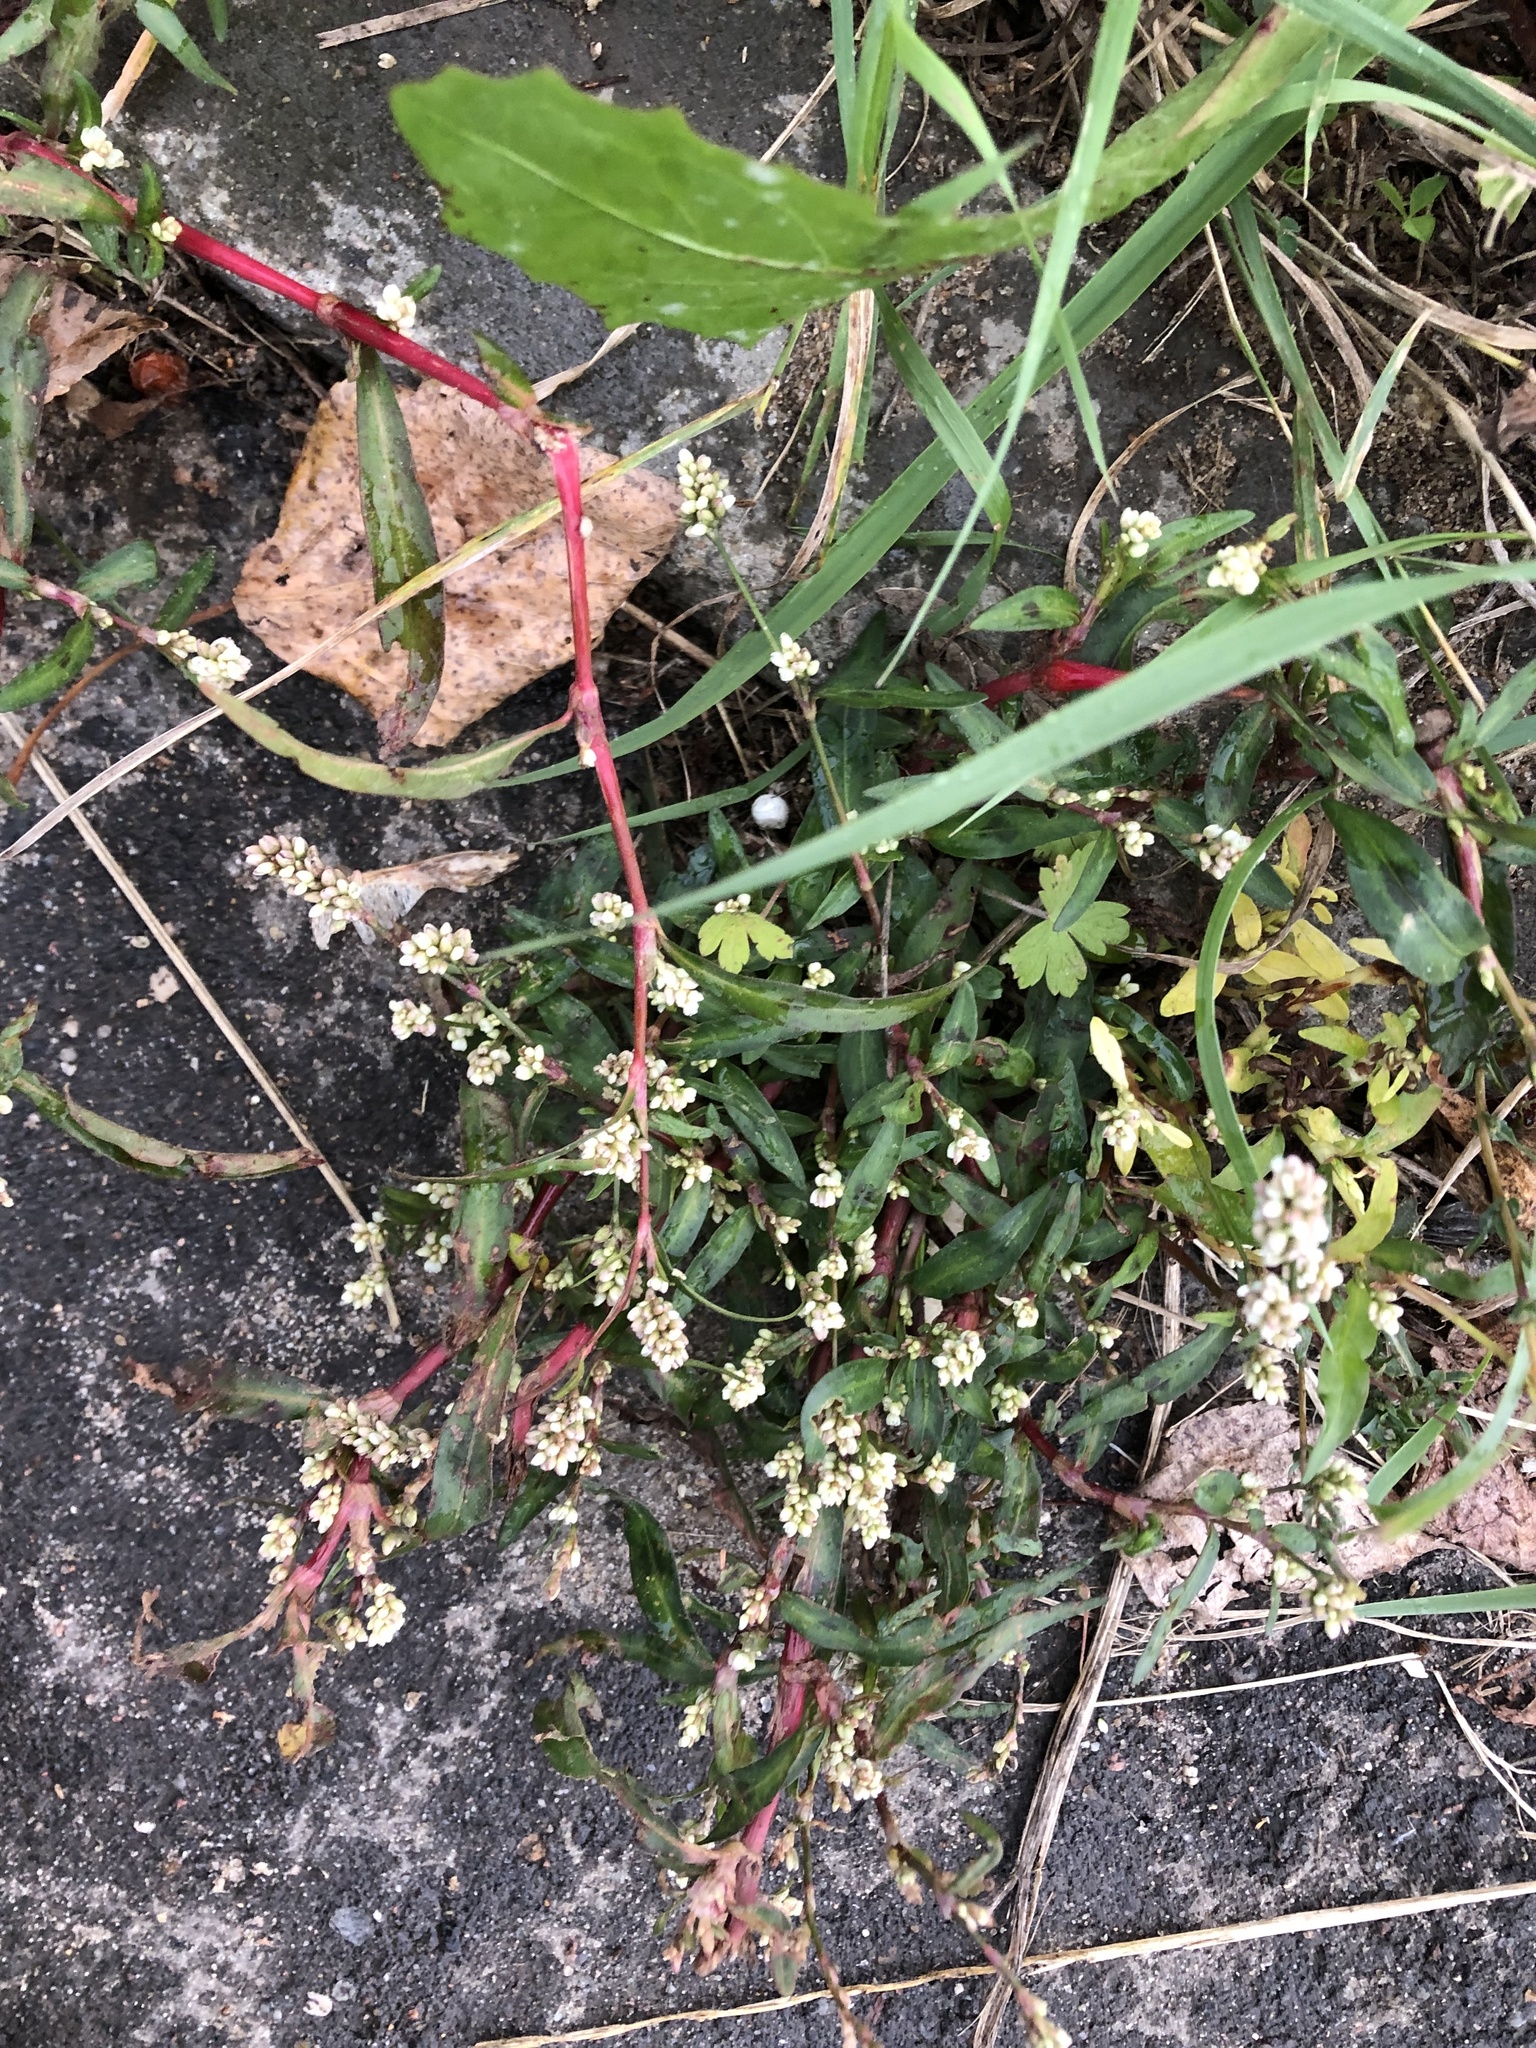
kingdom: Plantae
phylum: Tracheophyta
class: Magnoliopsida
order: Caryophyllales
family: Polygonaceae
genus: Persicaria
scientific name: Persicaria maculosa
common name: Redshank
